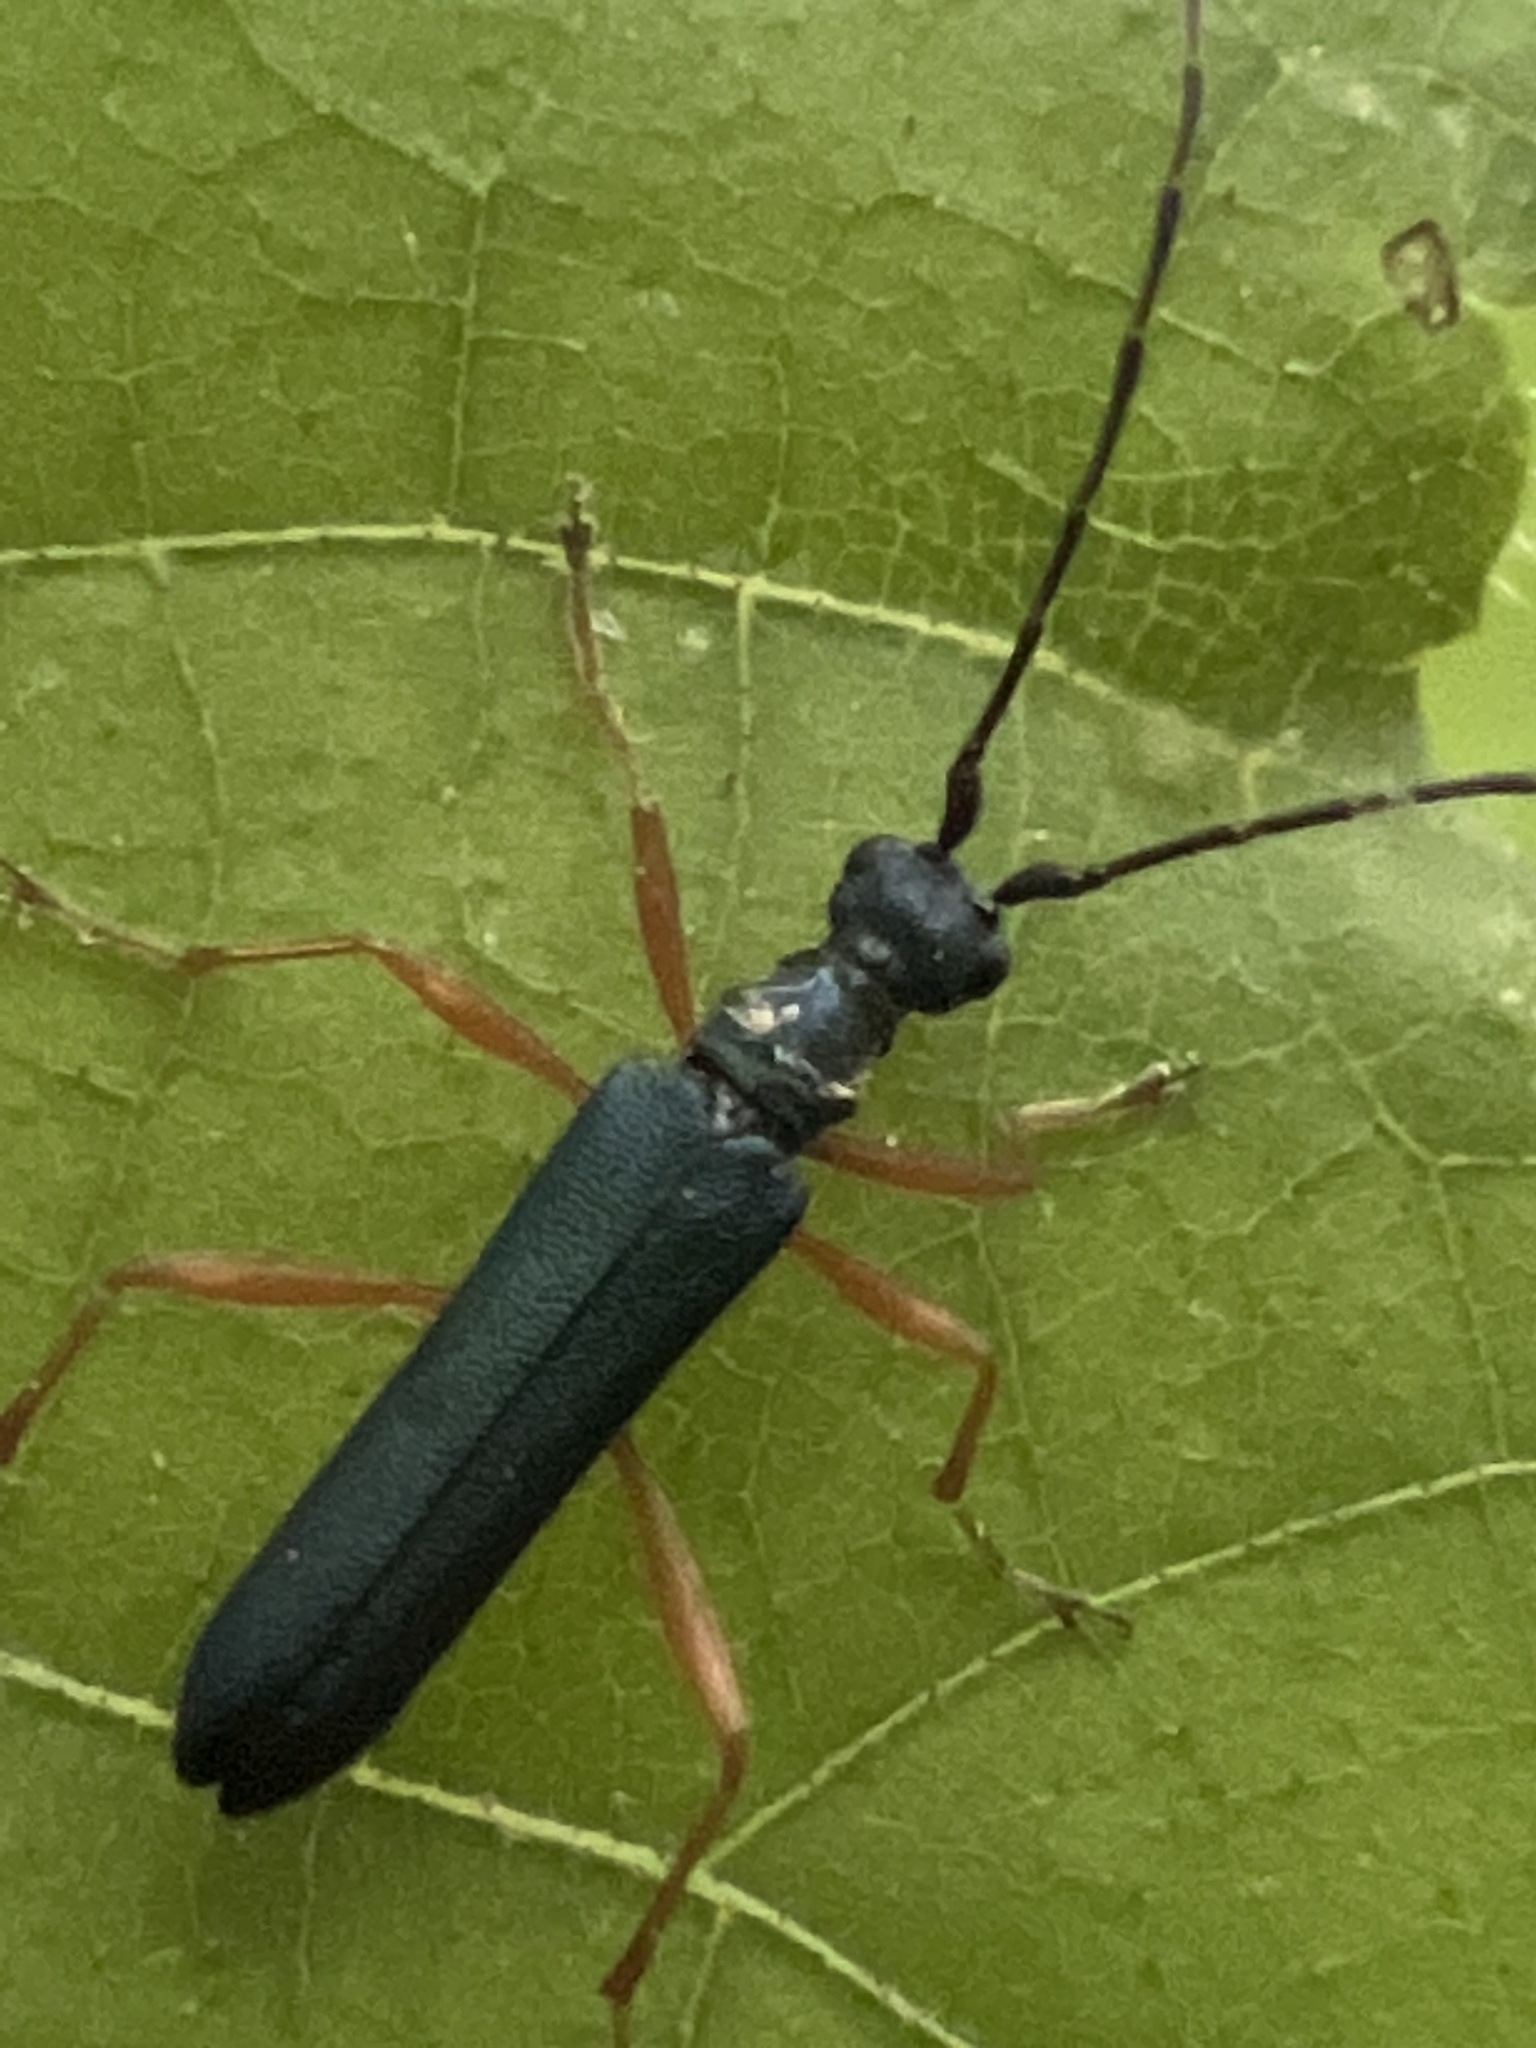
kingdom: Animalia
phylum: Arthropoda
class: Insecta
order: Coleoptera
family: Cerambycidae
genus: Encyclops
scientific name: Encyclops caerulea
